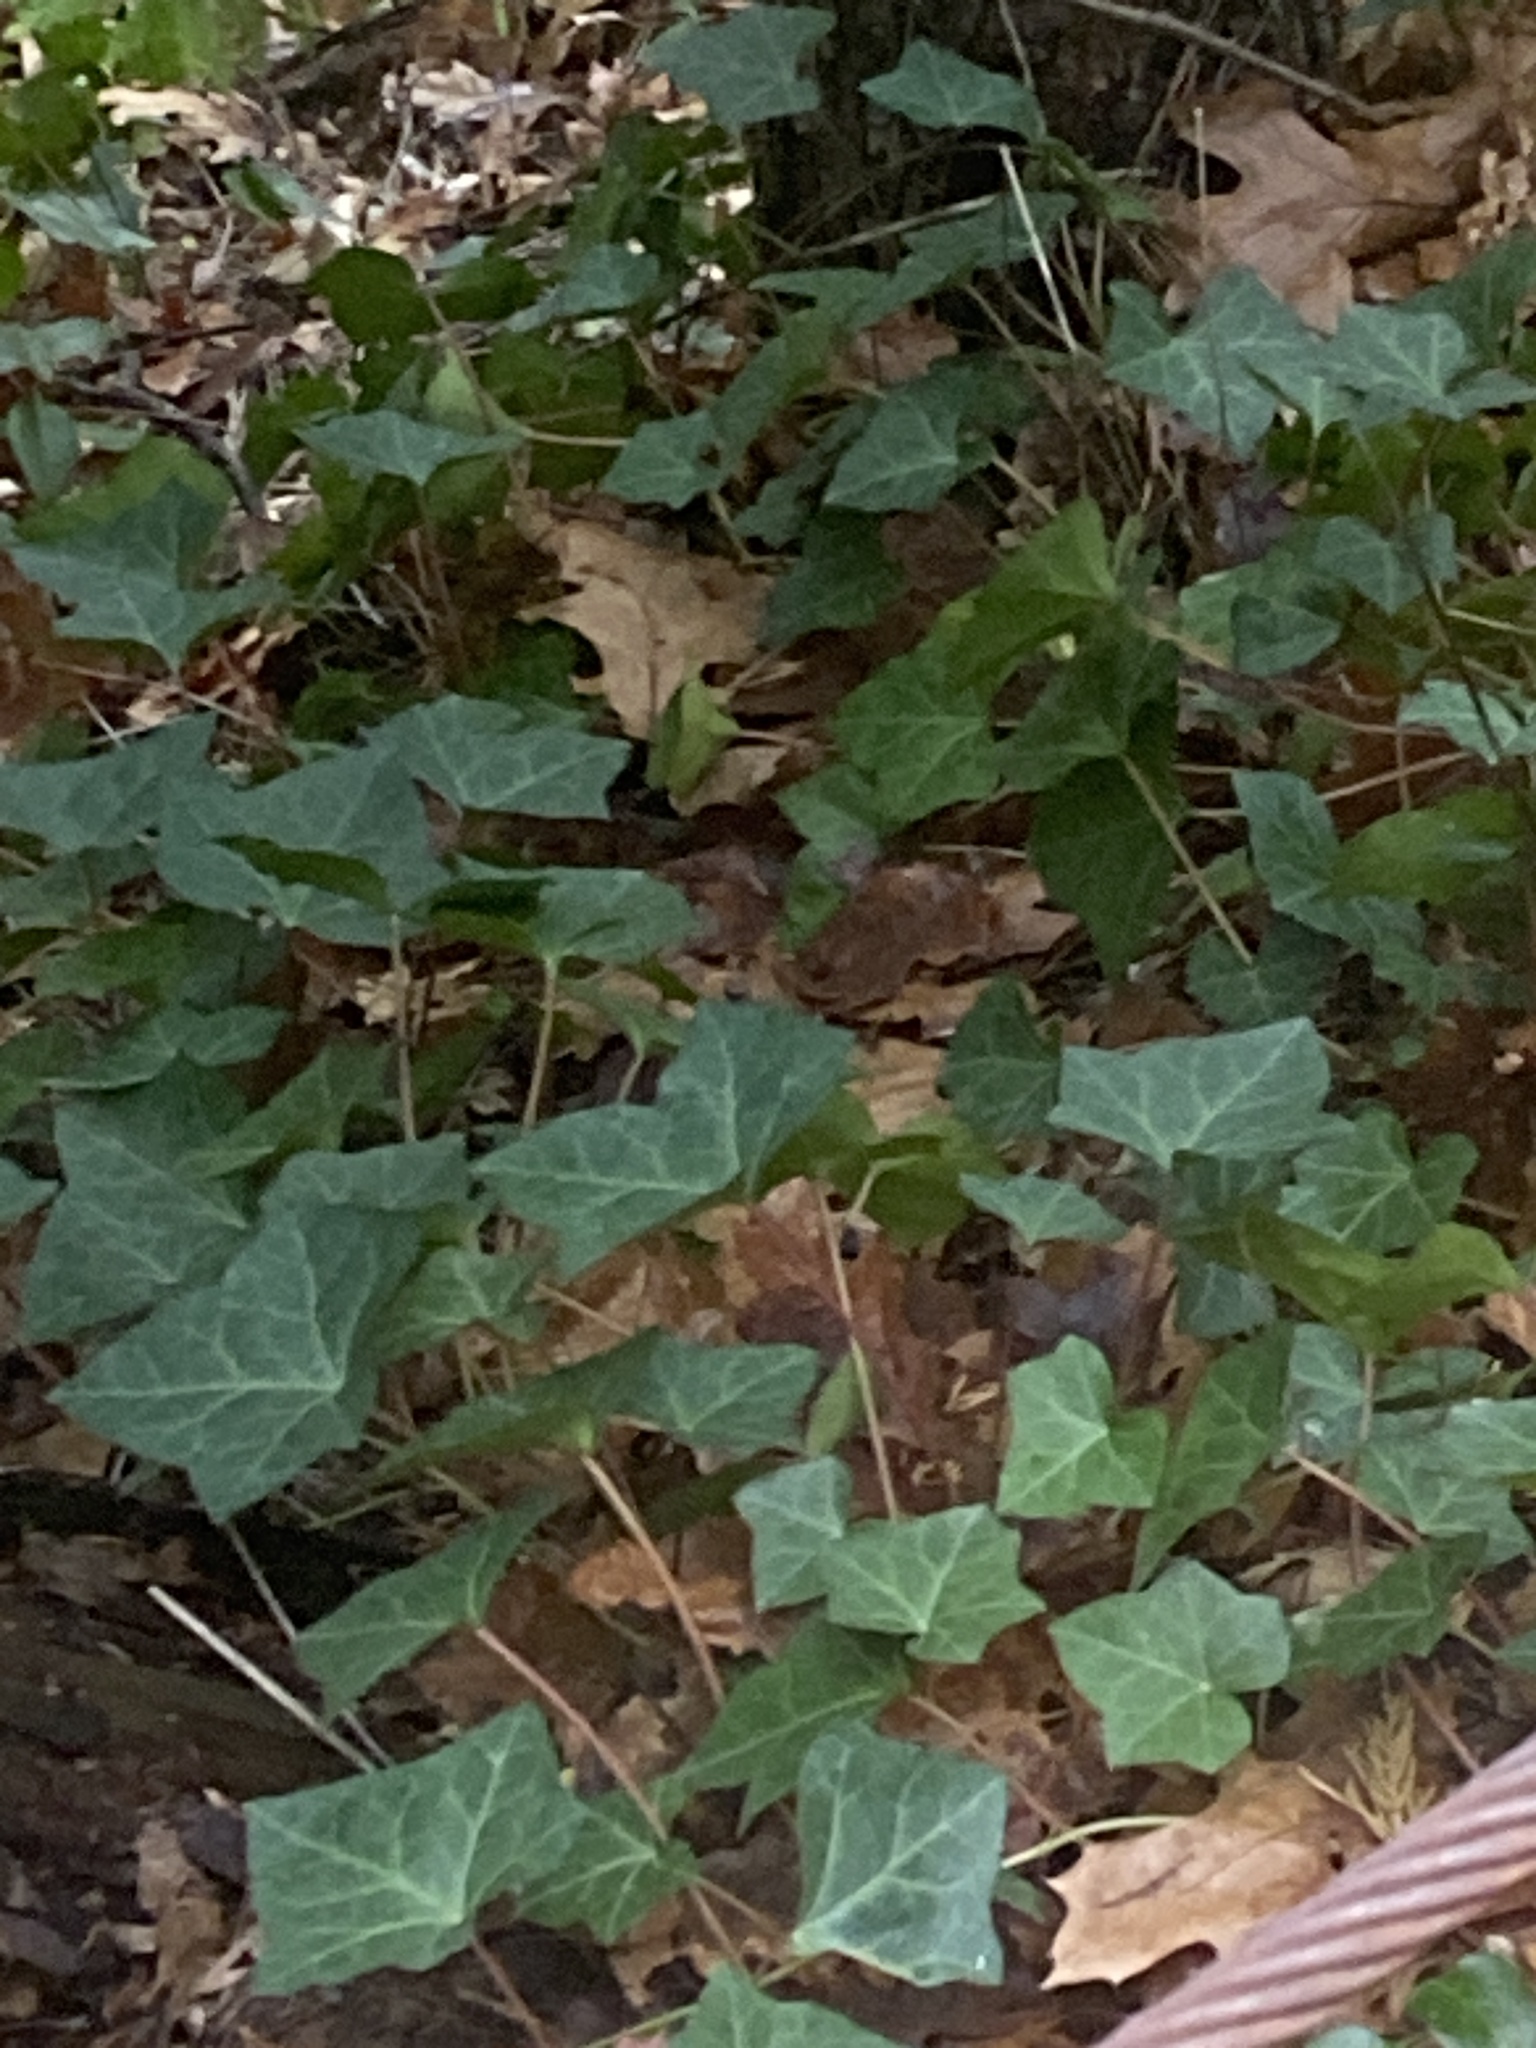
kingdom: Plantae
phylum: Tracheophyta
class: Magnoliopsida
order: Apiales
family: Araliaceae
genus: Hedera
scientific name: Hedera helix
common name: Ivy
